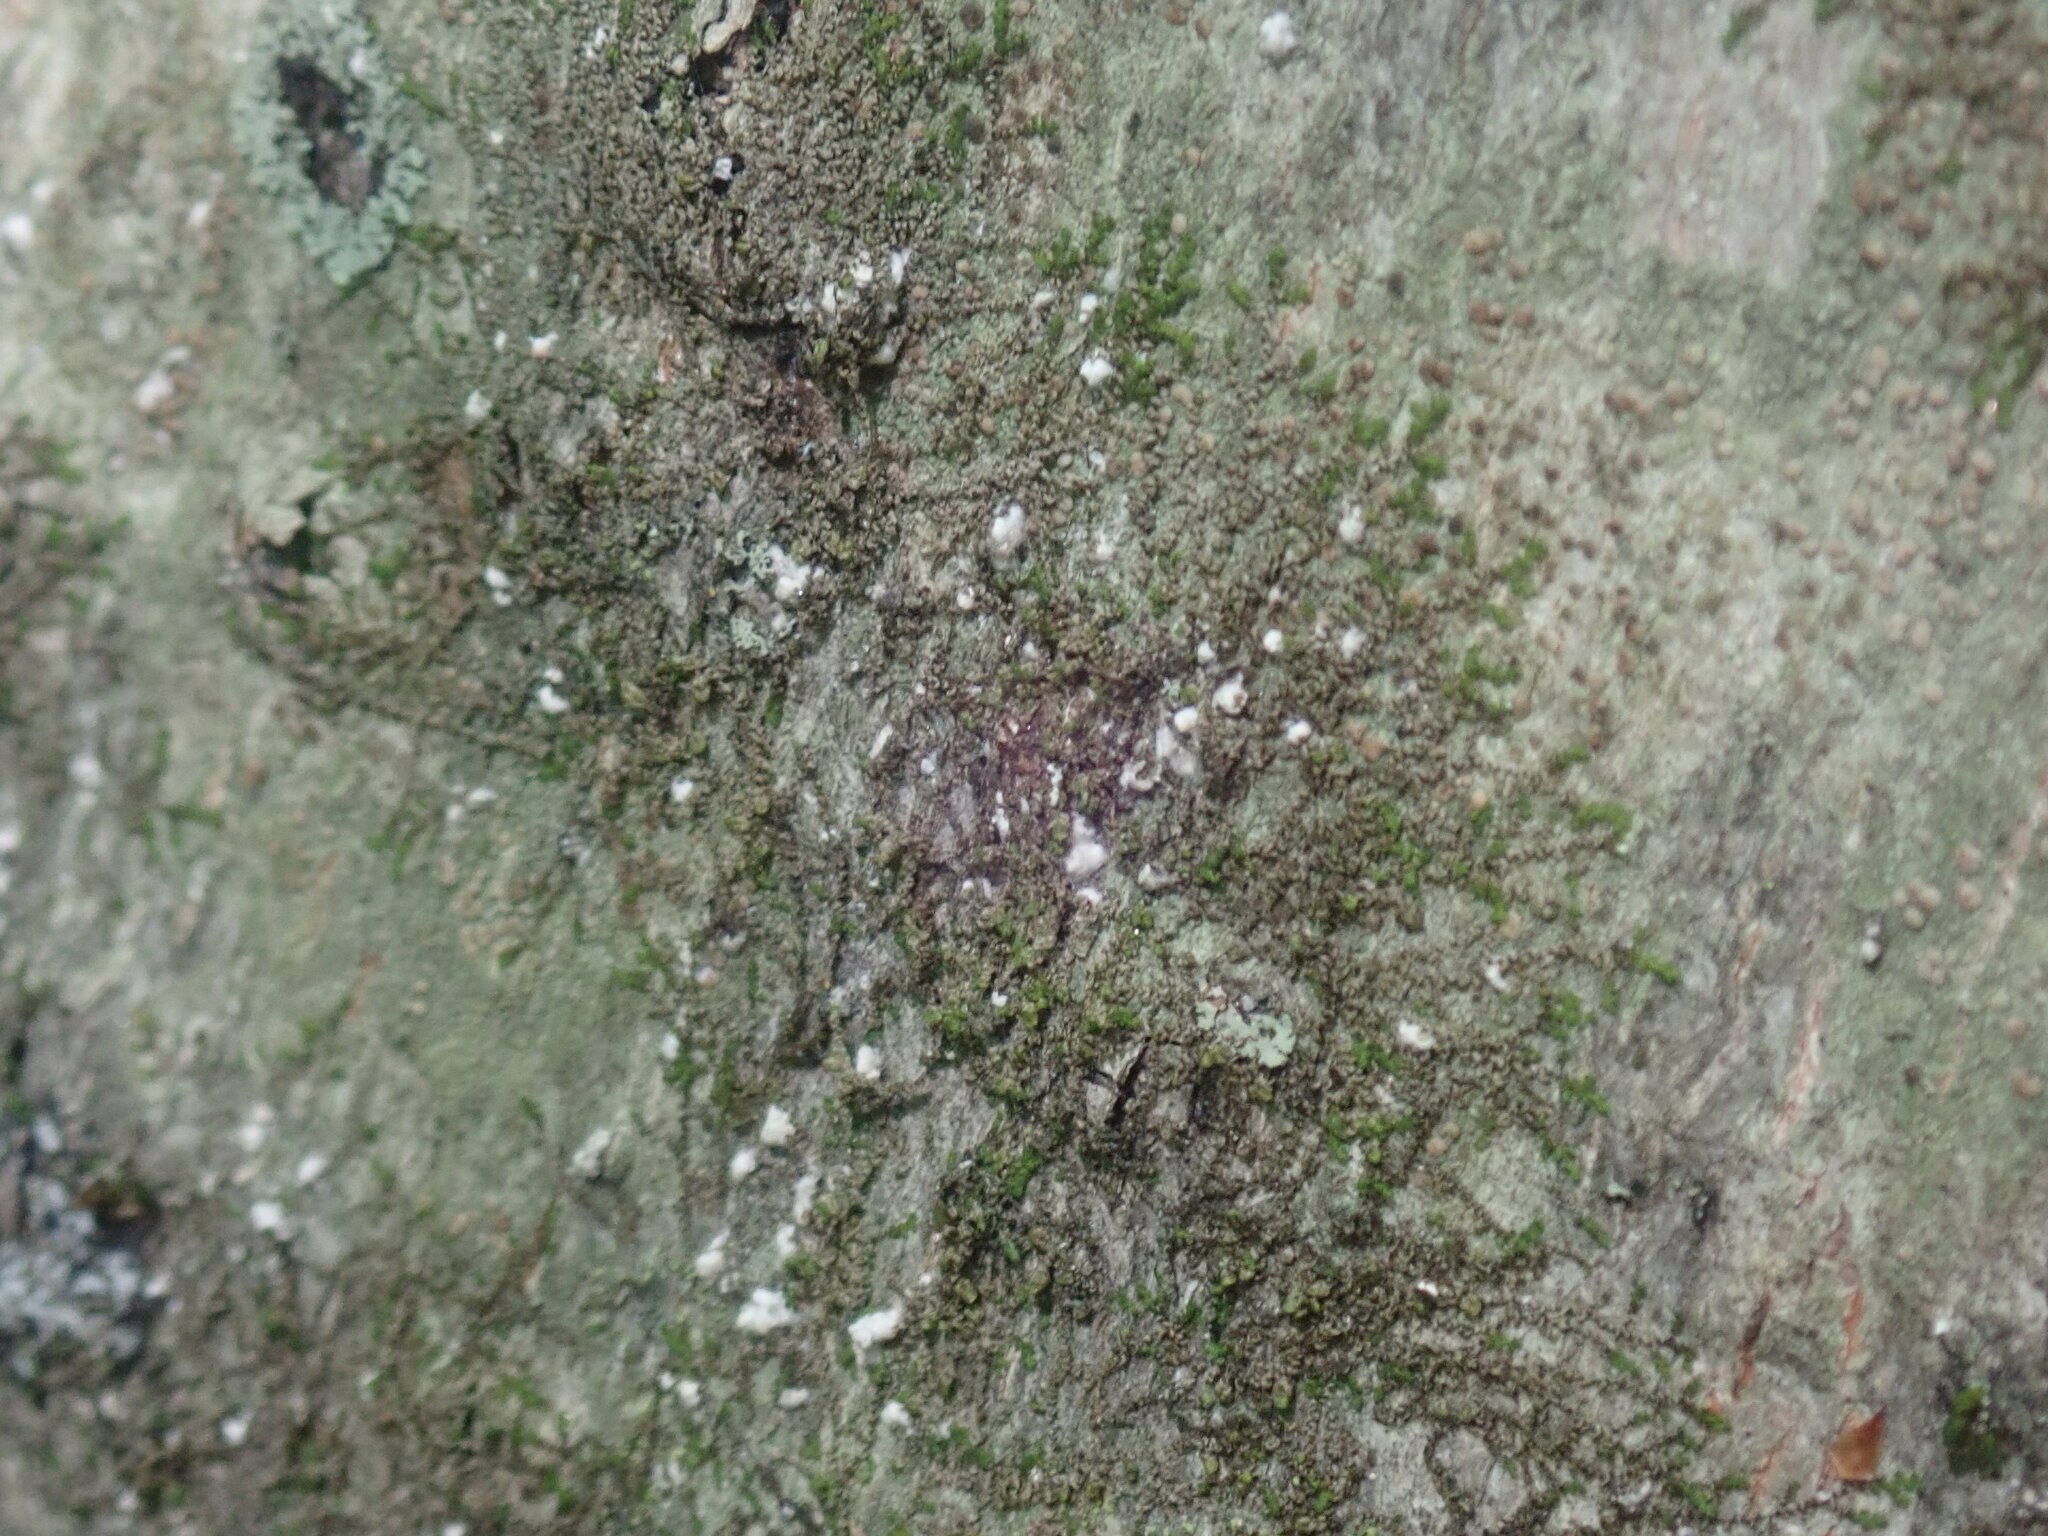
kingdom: Animalia
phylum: Arthropoda
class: Insecta
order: Hemiptera
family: Eriococcidae
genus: Cryptococcus
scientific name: Cryptococcus fagisuga
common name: Beech scale
